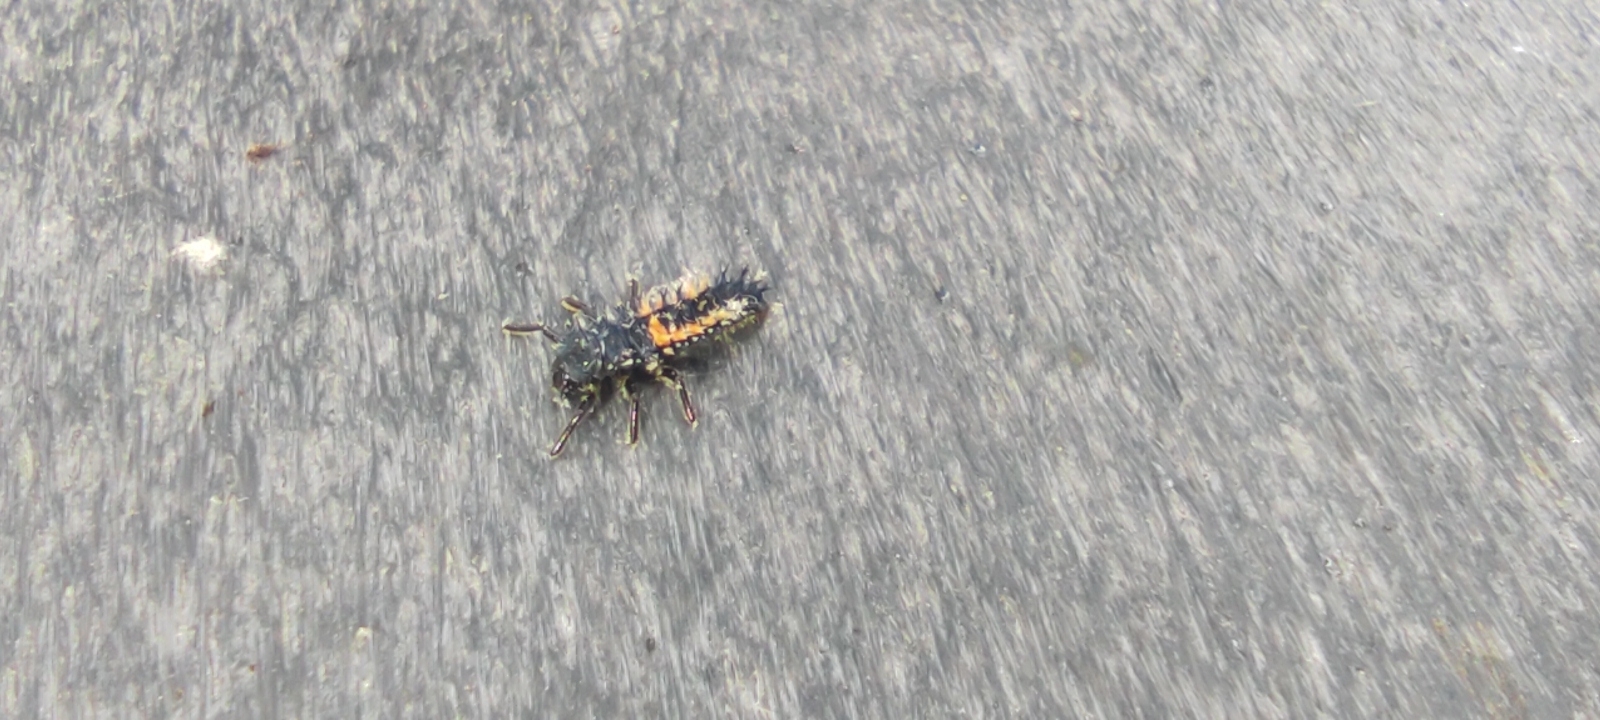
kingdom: Animalia
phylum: Arthropoda
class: Insecta
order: Coleoptera
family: Coccinellidae
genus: Harmonia
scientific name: Harmonia axyridis
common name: Harlequin ladybird
